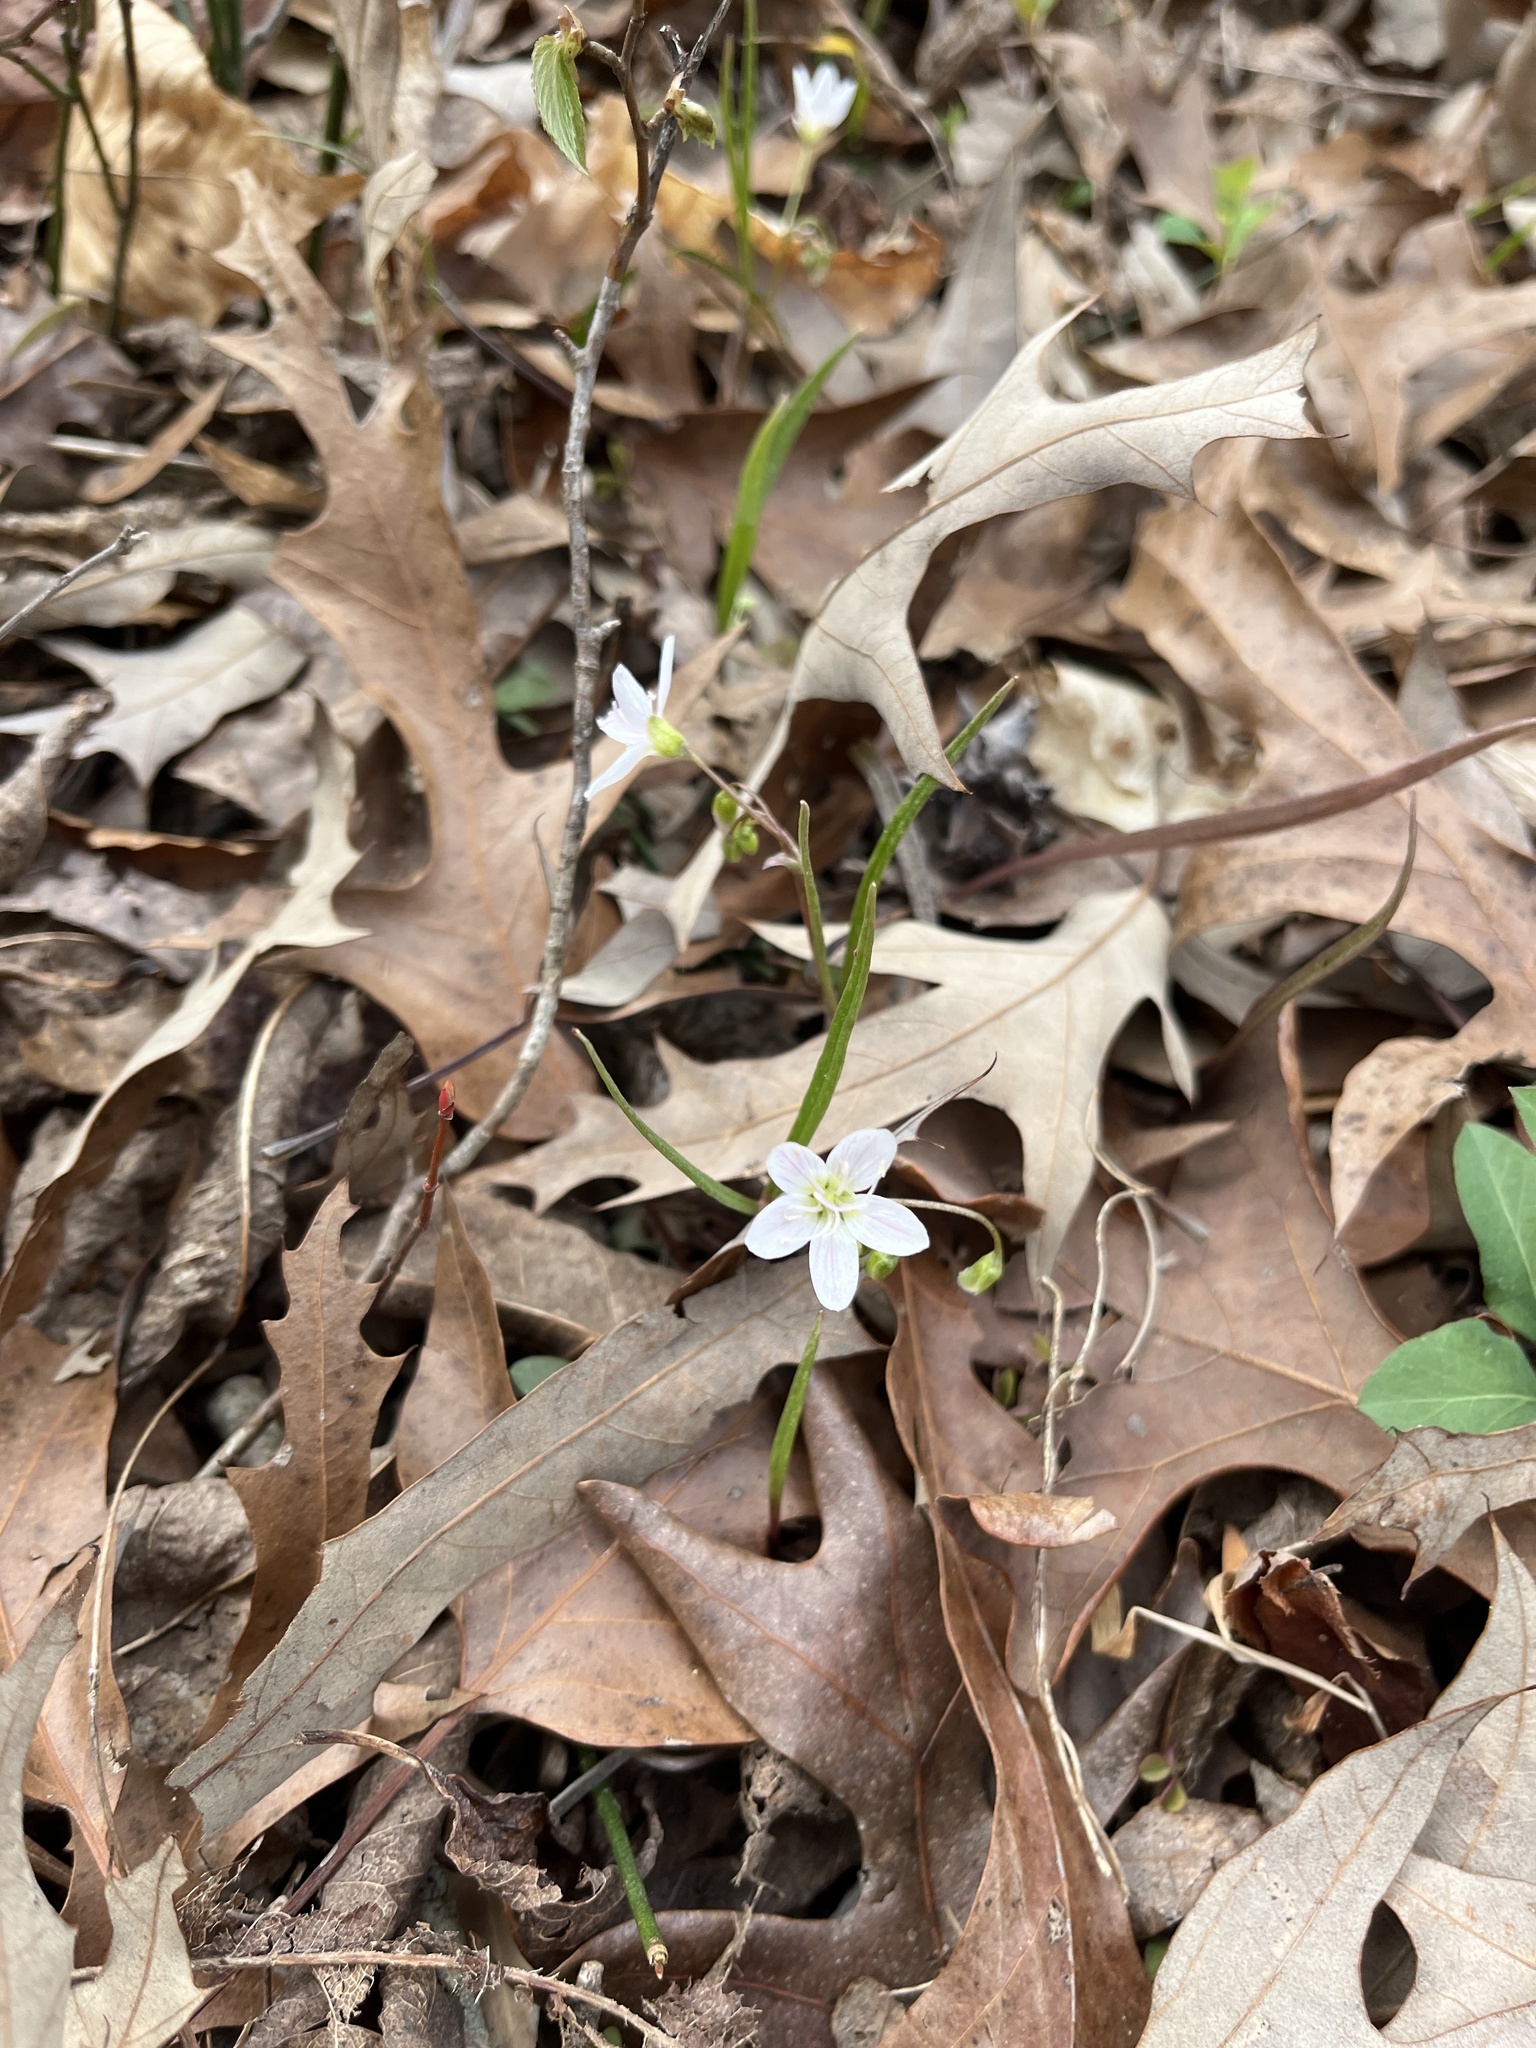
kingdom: Plantae
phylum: Tracheophyta
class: Magnoliopsida
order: Caryophyllales
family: Montiaceae
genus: Claytonia
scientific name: Claytonia virginica
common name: Virginia springbeauty
